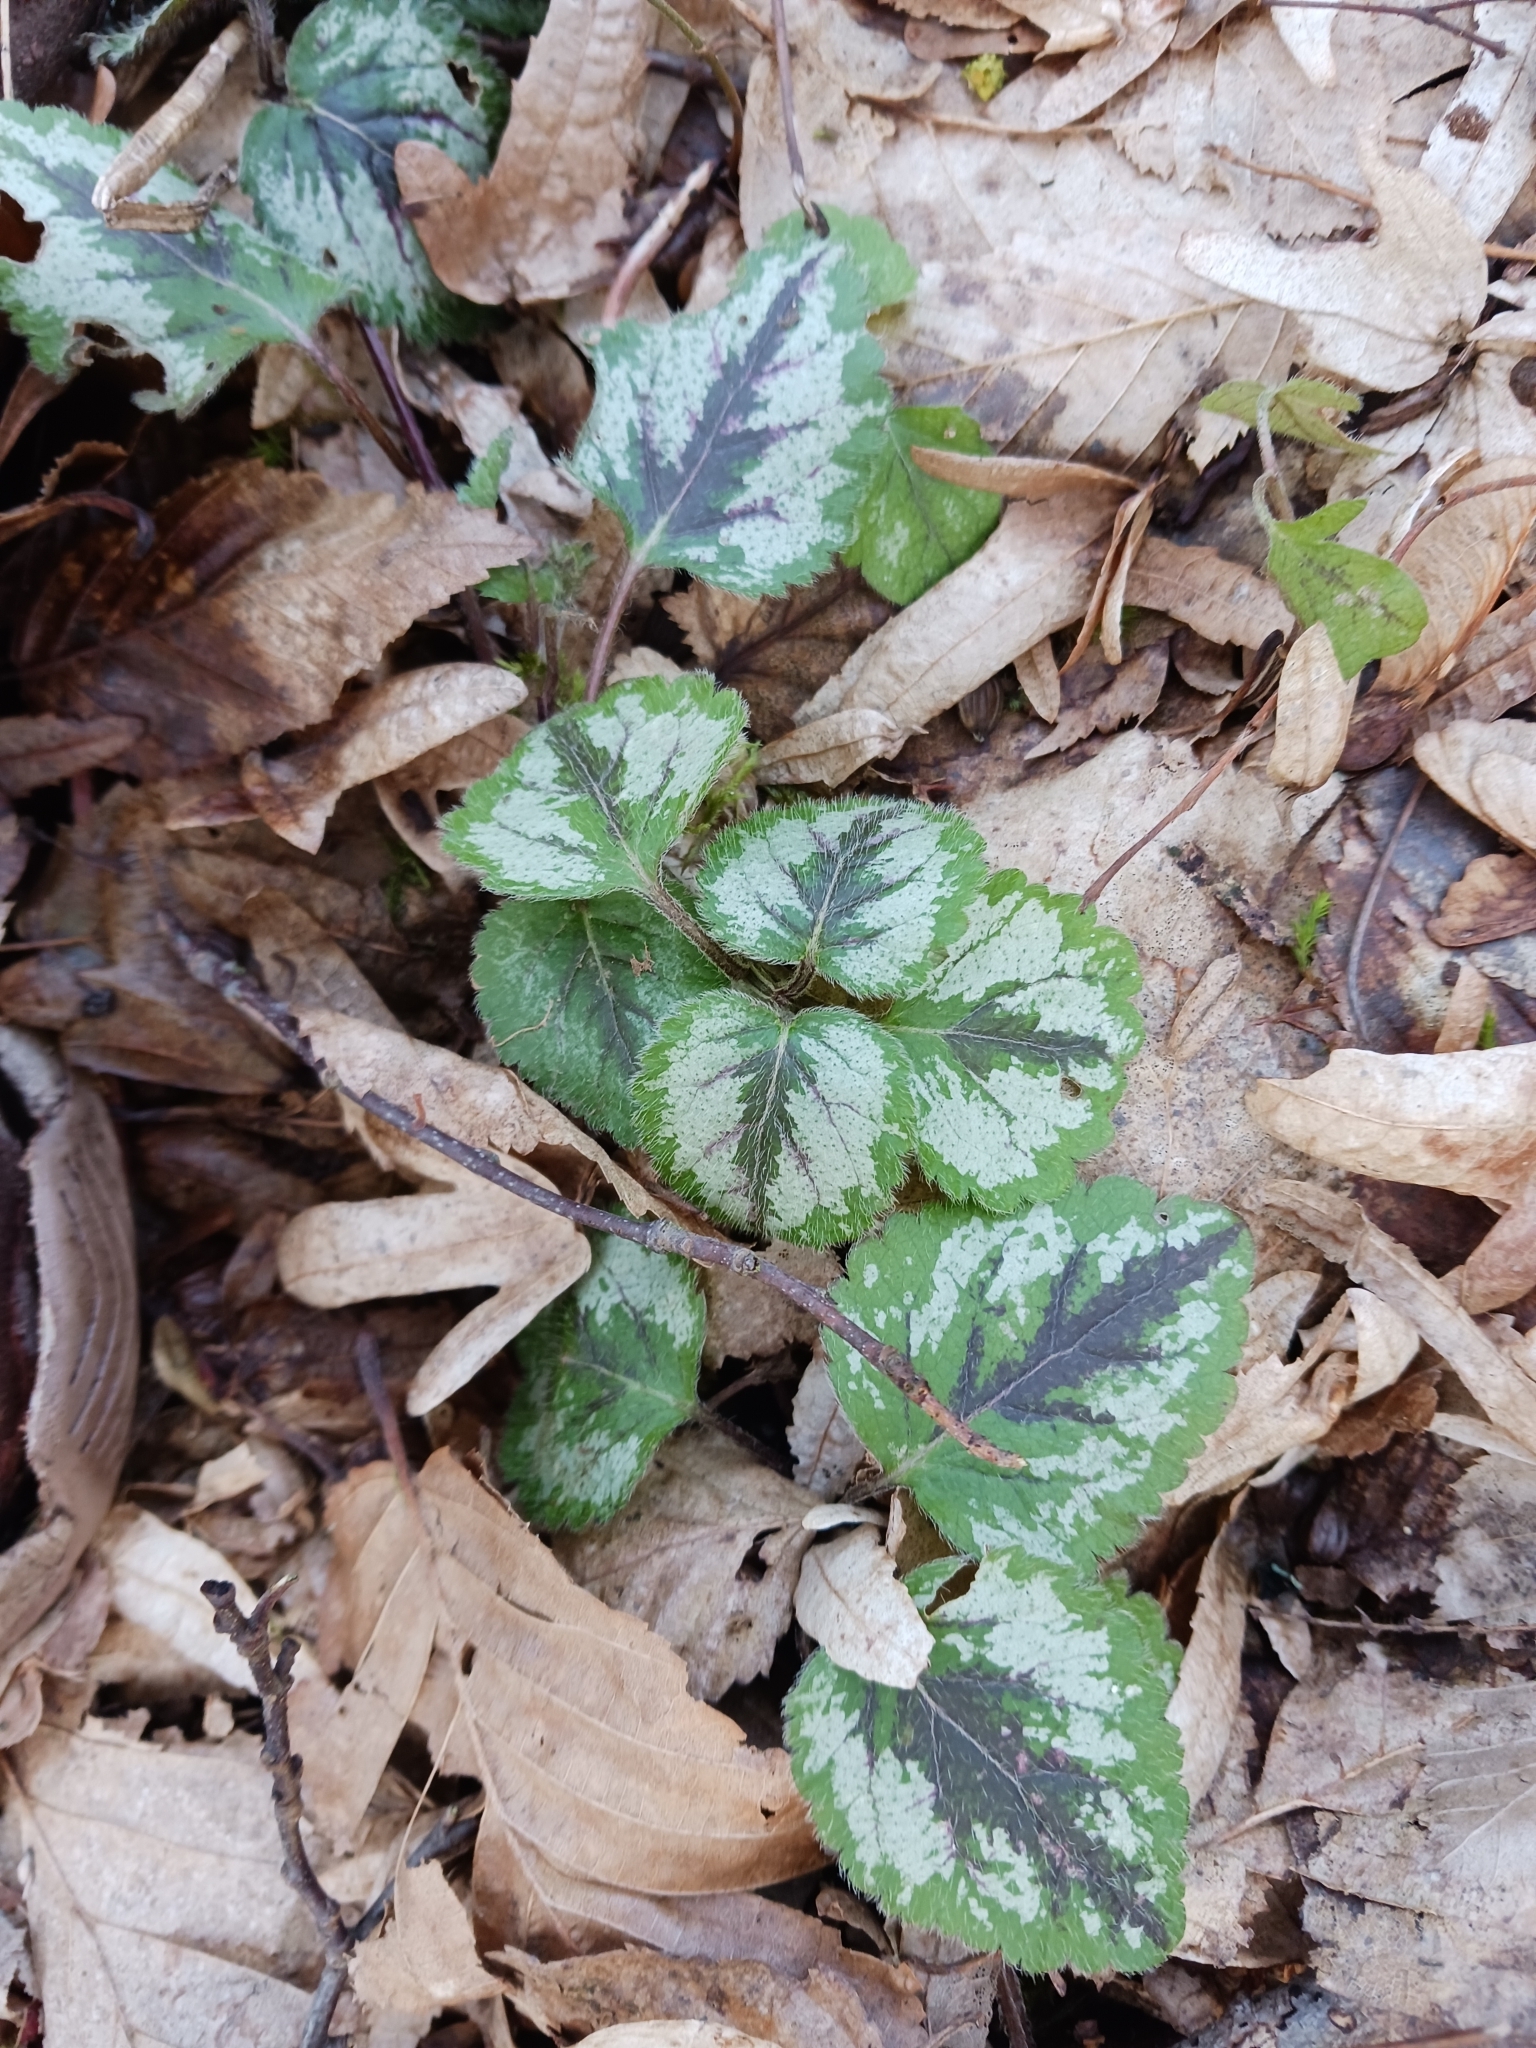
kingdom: Plantae
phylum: Tracheophyta
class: Magnoliopsida
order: Lamiales
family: Lamiaceae
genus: Lamium
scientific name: Lamium galeobdolon
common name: Yellow archangel
